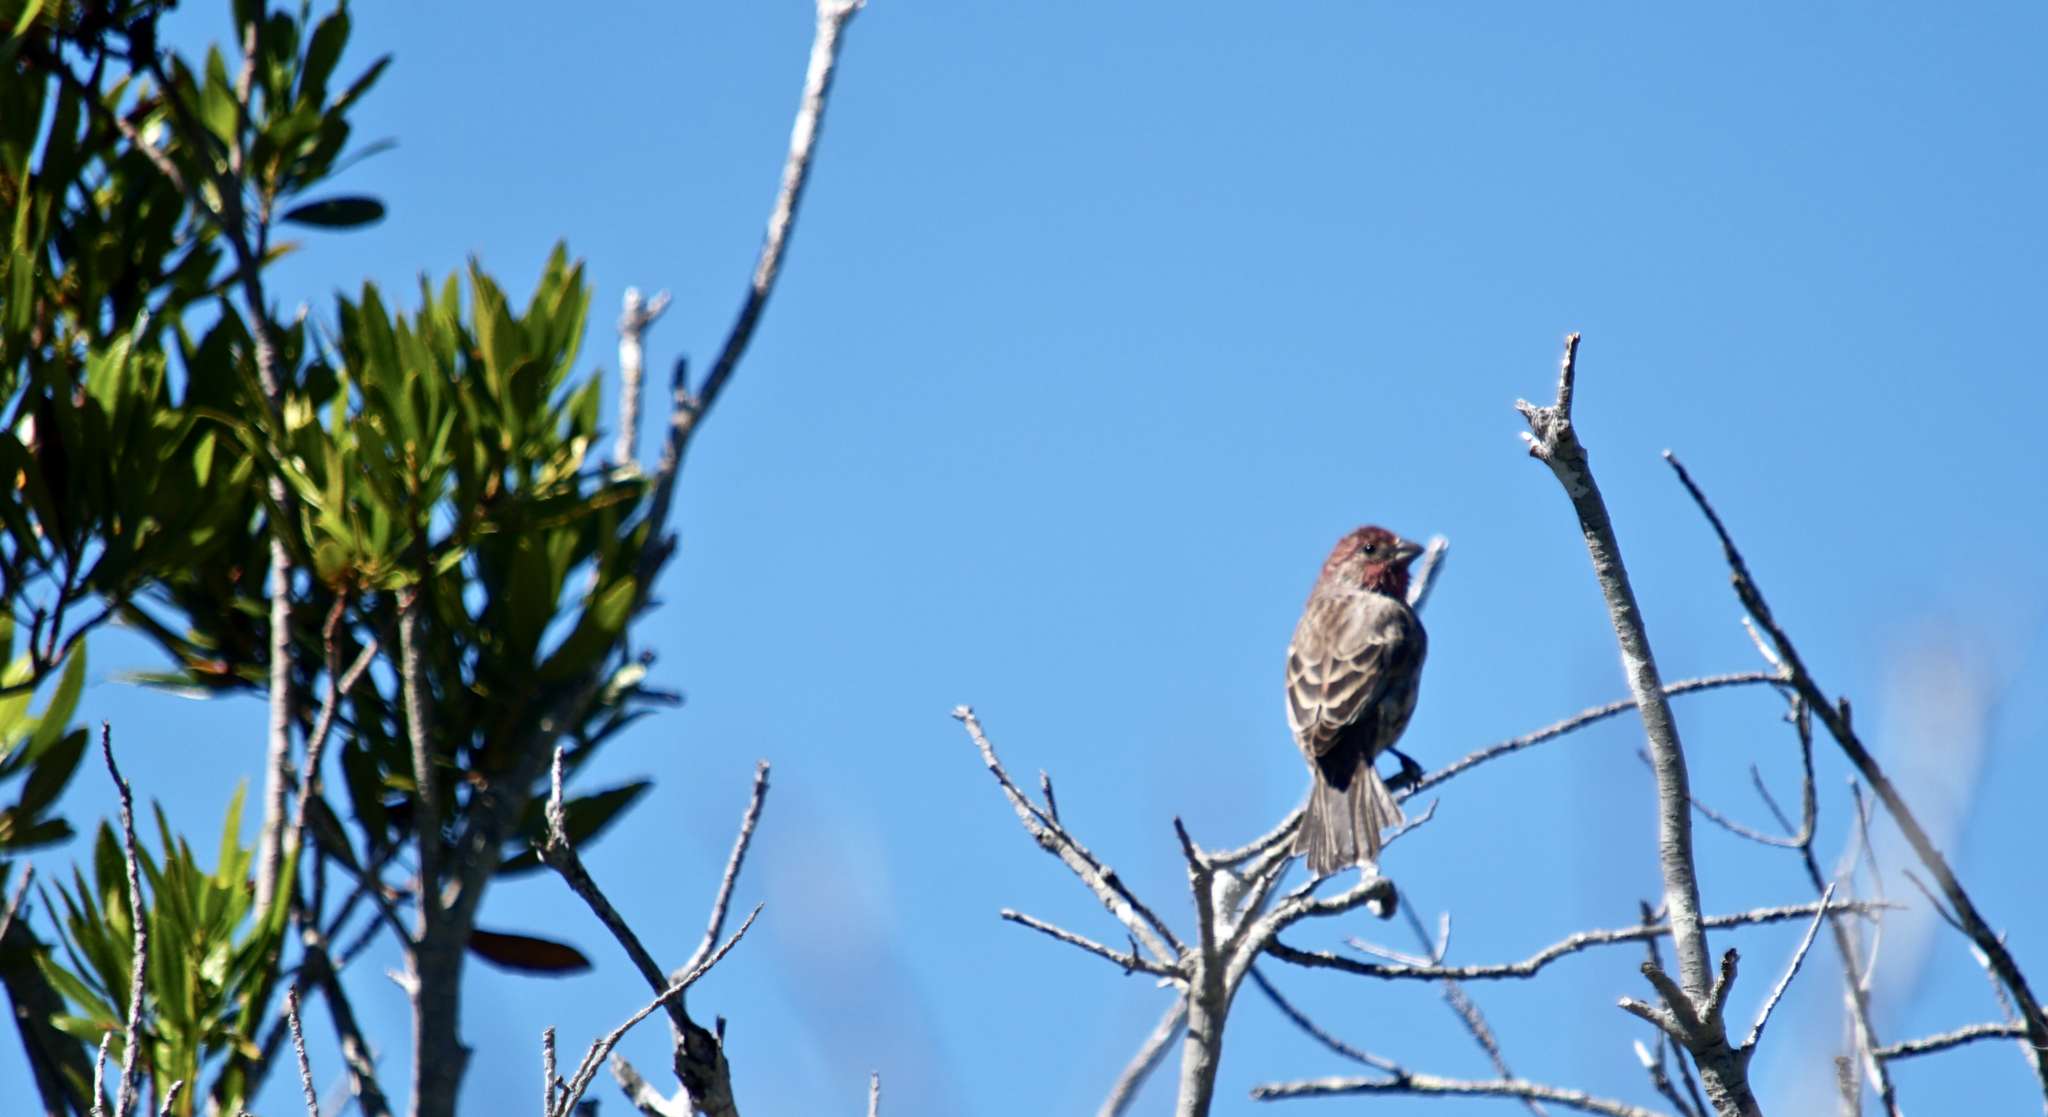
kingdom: Animalia
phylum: Chordata
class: Aves
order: Passeriformes
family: Fringillidae
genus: Haemorhous
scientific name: Haemorhous mexicanus
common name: House finch
